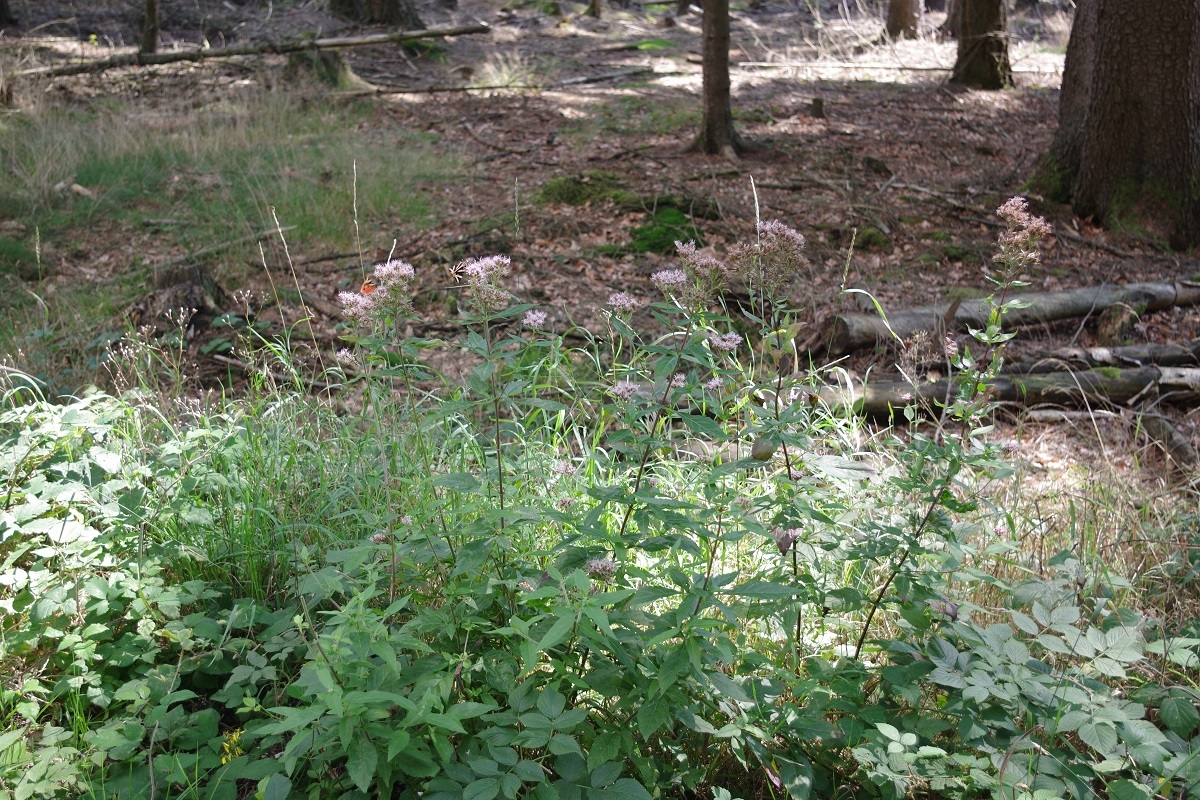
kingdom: Plantae
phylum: Tracheophyta
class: Magnoliopsida
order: Asterales
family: Asteraceae
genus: Eupatorium
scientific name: Eupatorium cannabinum
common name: Hemp-agrimony
